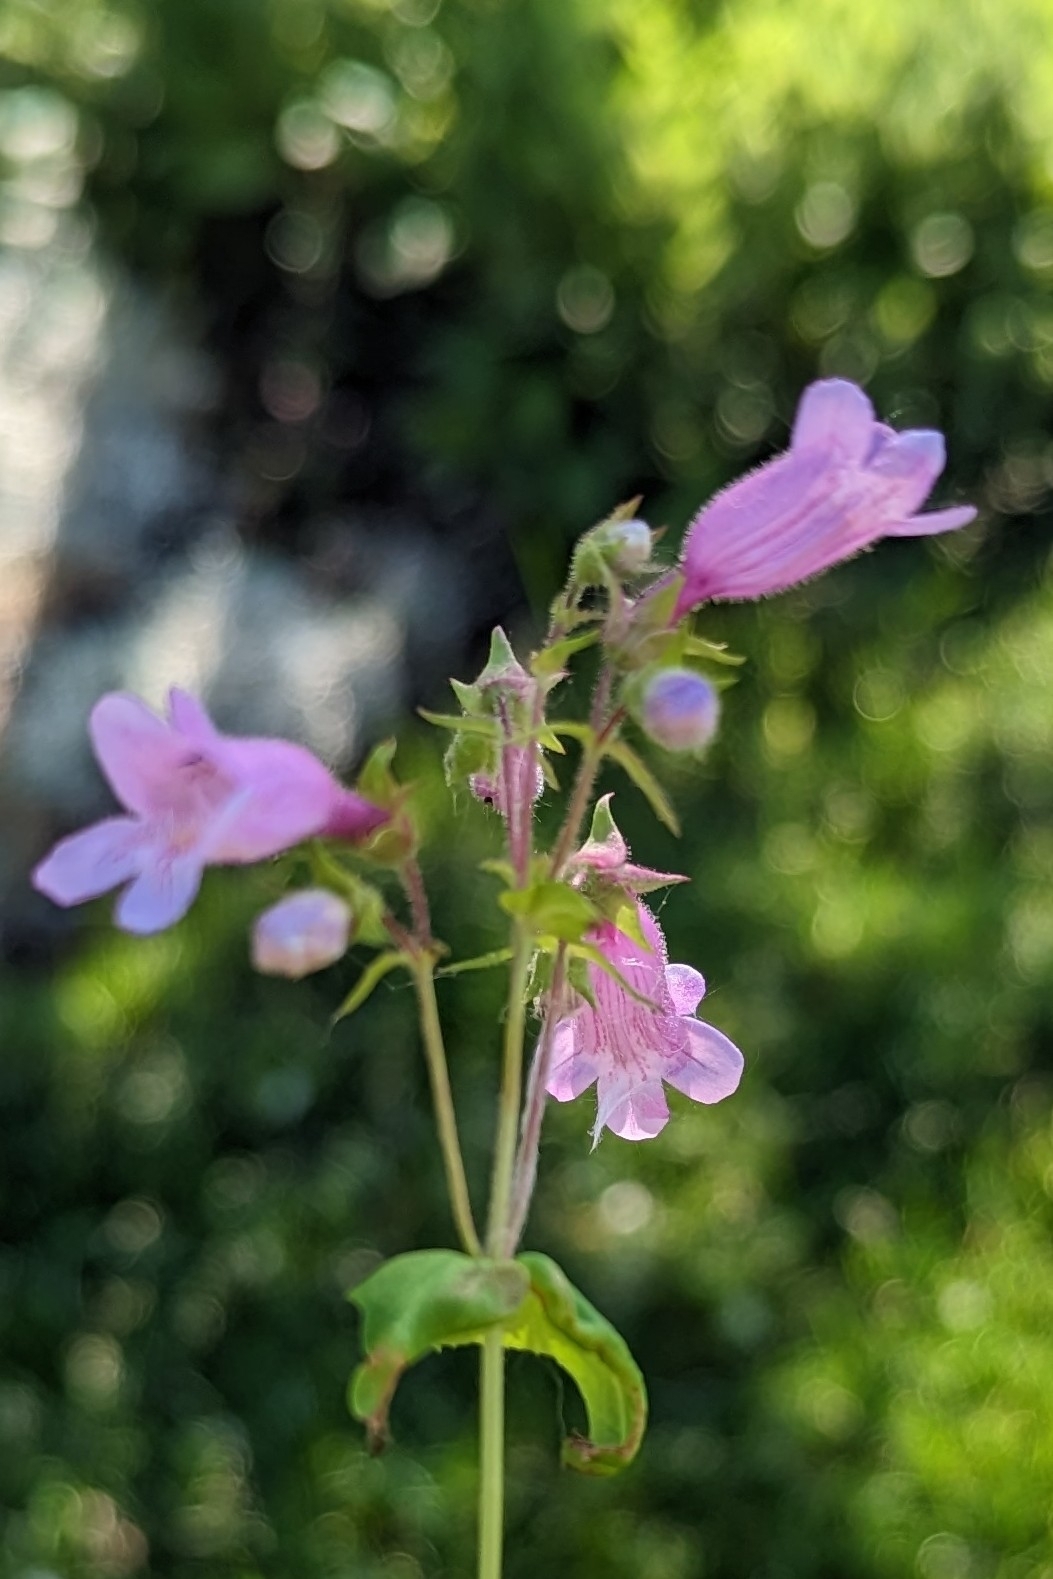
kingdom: Plantae
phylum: Tracheophyta
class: Magnoliopsida
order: Lamiales
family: Plantaginaceae
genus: Penstemon
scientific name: Penstemon calycosus
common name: Long-sepal beardtongue
